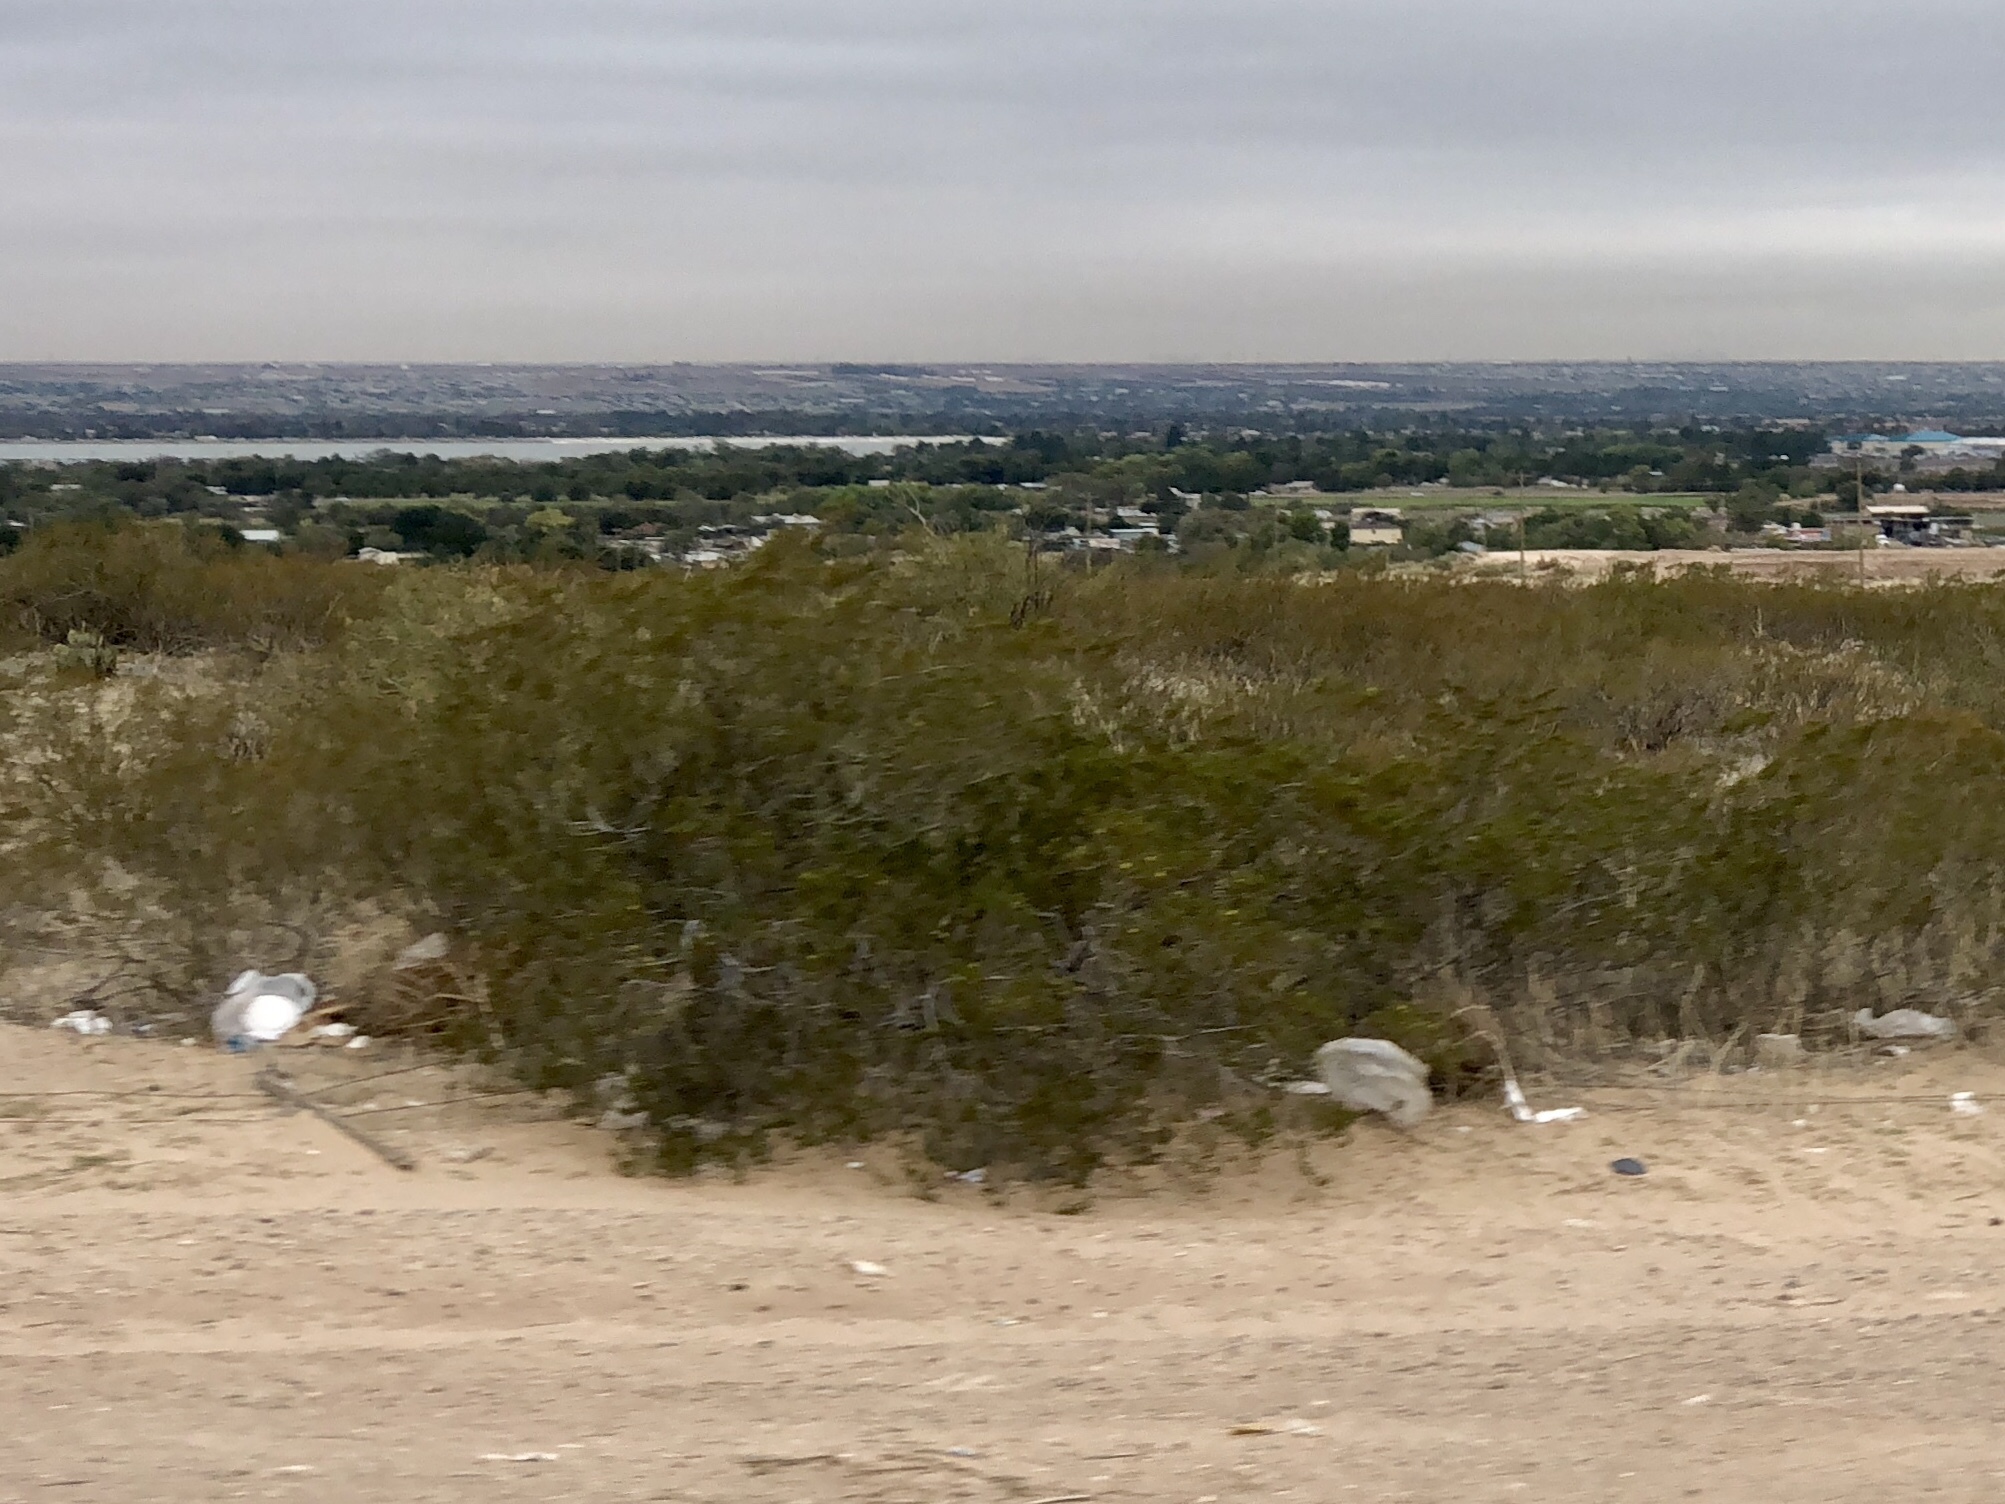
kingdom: Plantae
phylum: Tracheophyta
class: Magnoliopsida
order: Zygophyllales
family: Zygophyllaceae
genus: Larrea
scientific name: Larrea tridentata
